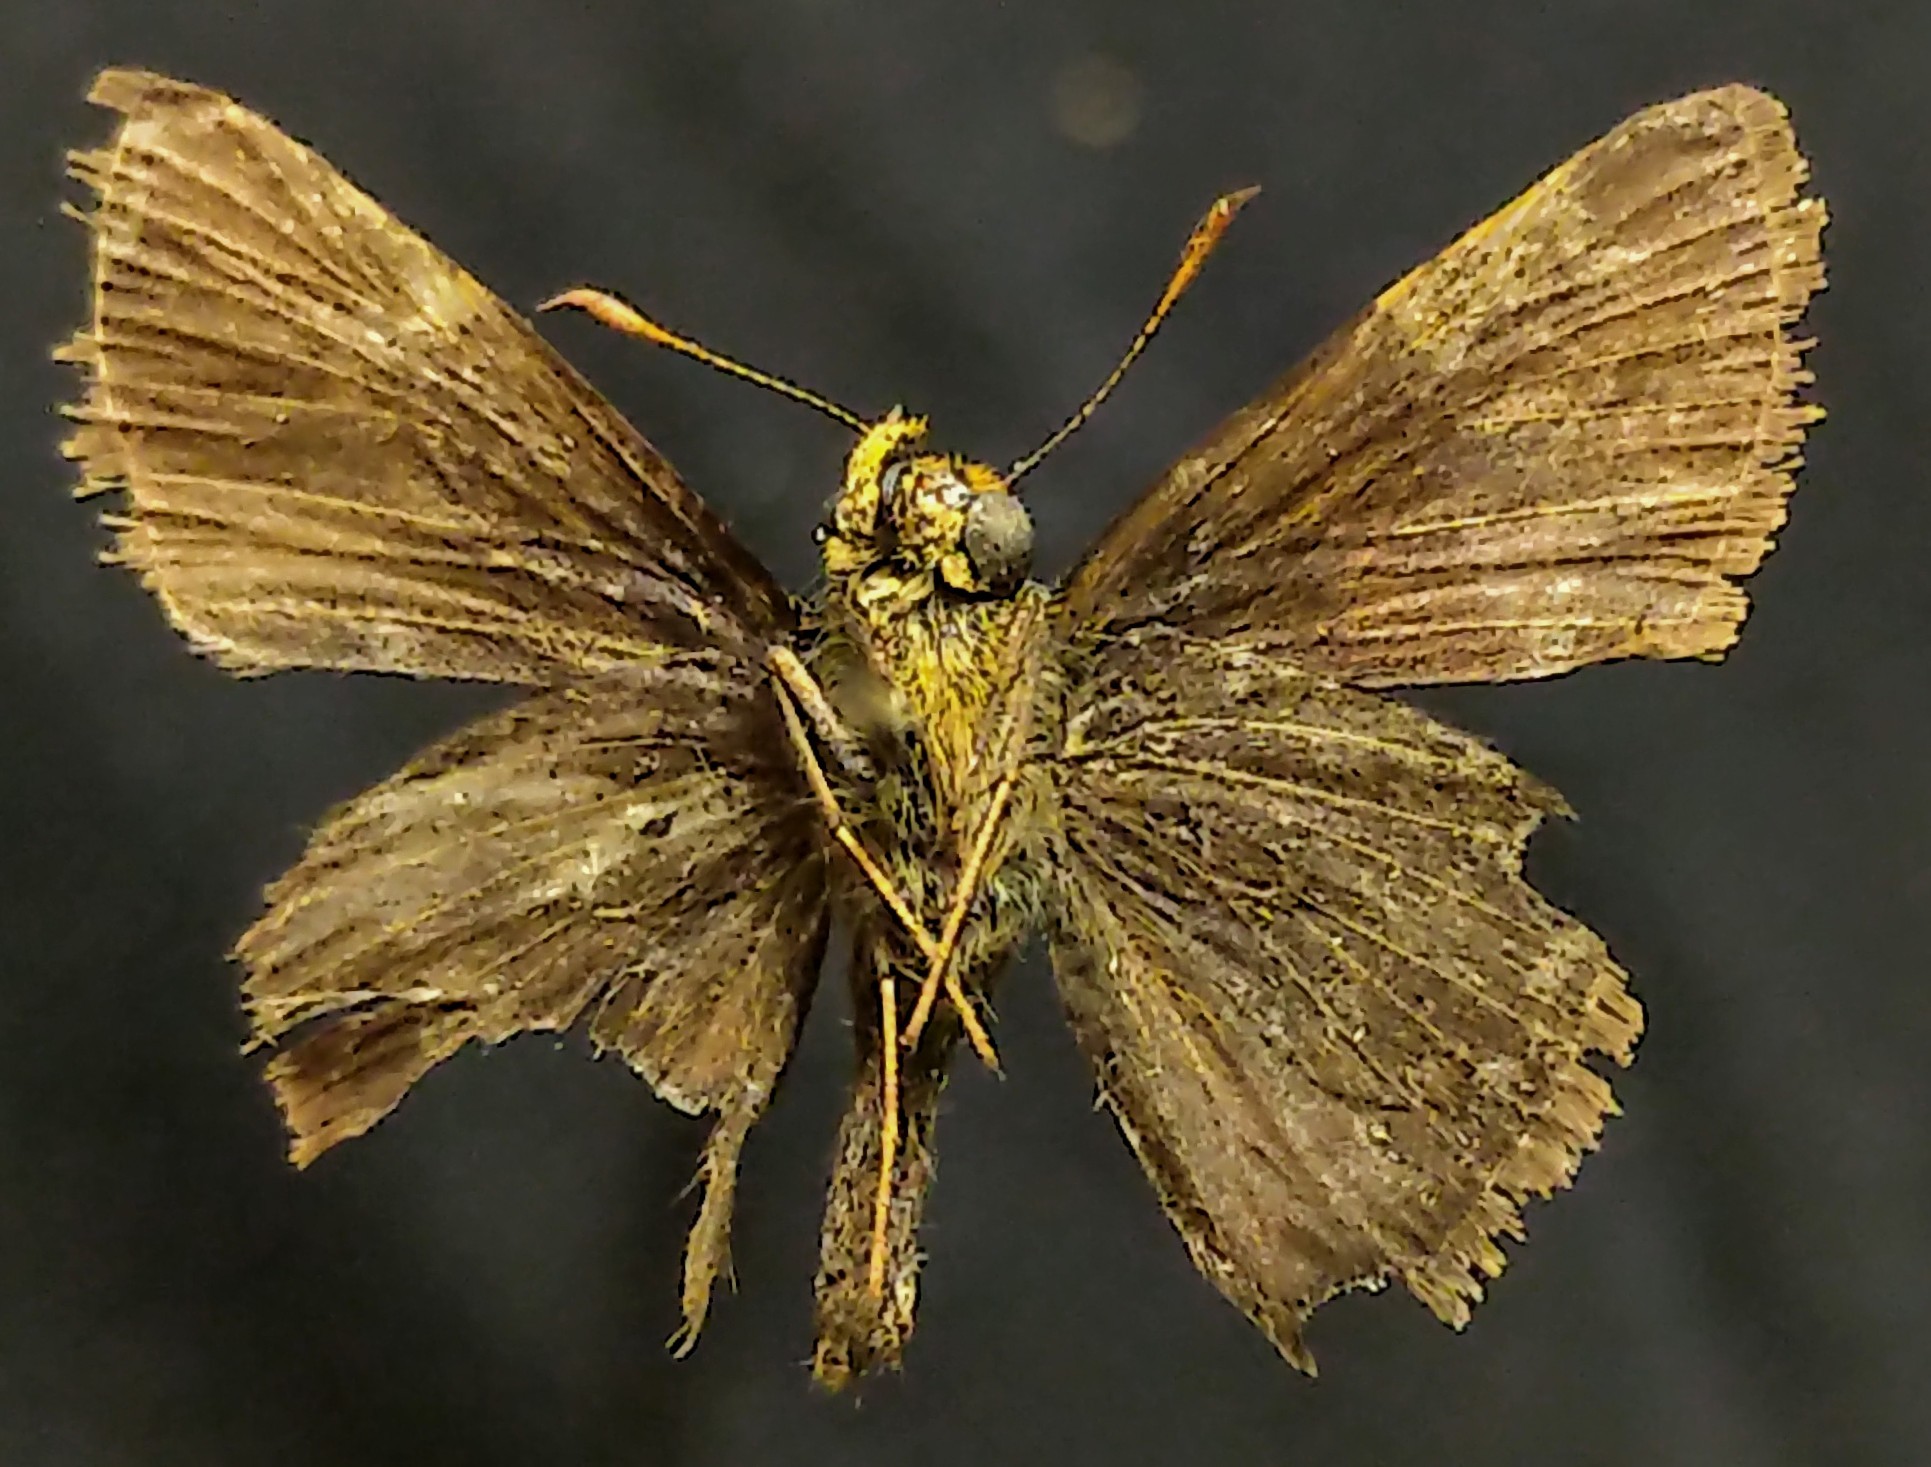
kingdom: Animalia
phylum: Arthropoda
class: Insecta
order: Lepidoptera
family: Hesperiidae
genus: Euphyes
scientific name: Euphyes vestris
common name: Dun skipper
